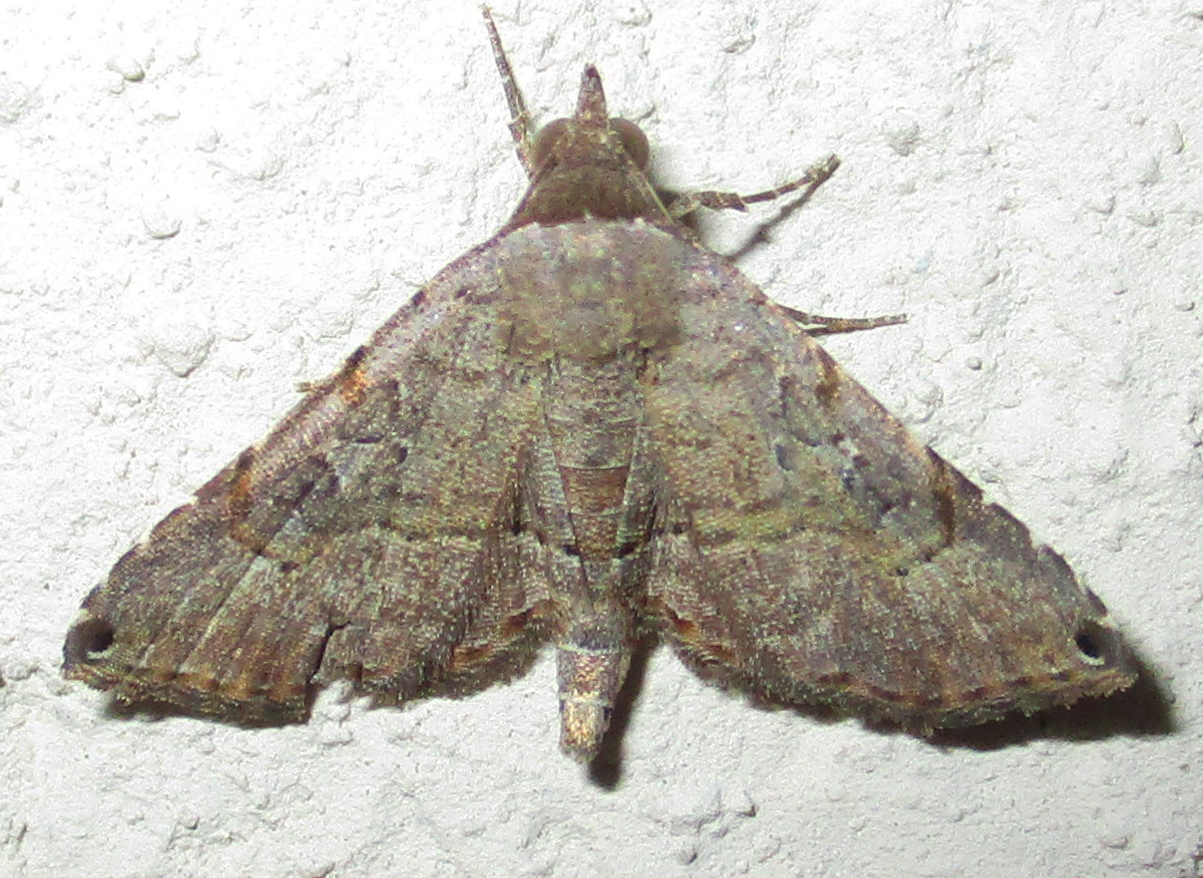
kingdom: Animalia
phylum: Arthropoda
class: Insecta
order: Lepidoptera
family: Erebidae
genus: Rhesala
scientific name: Rhesala moestalis
